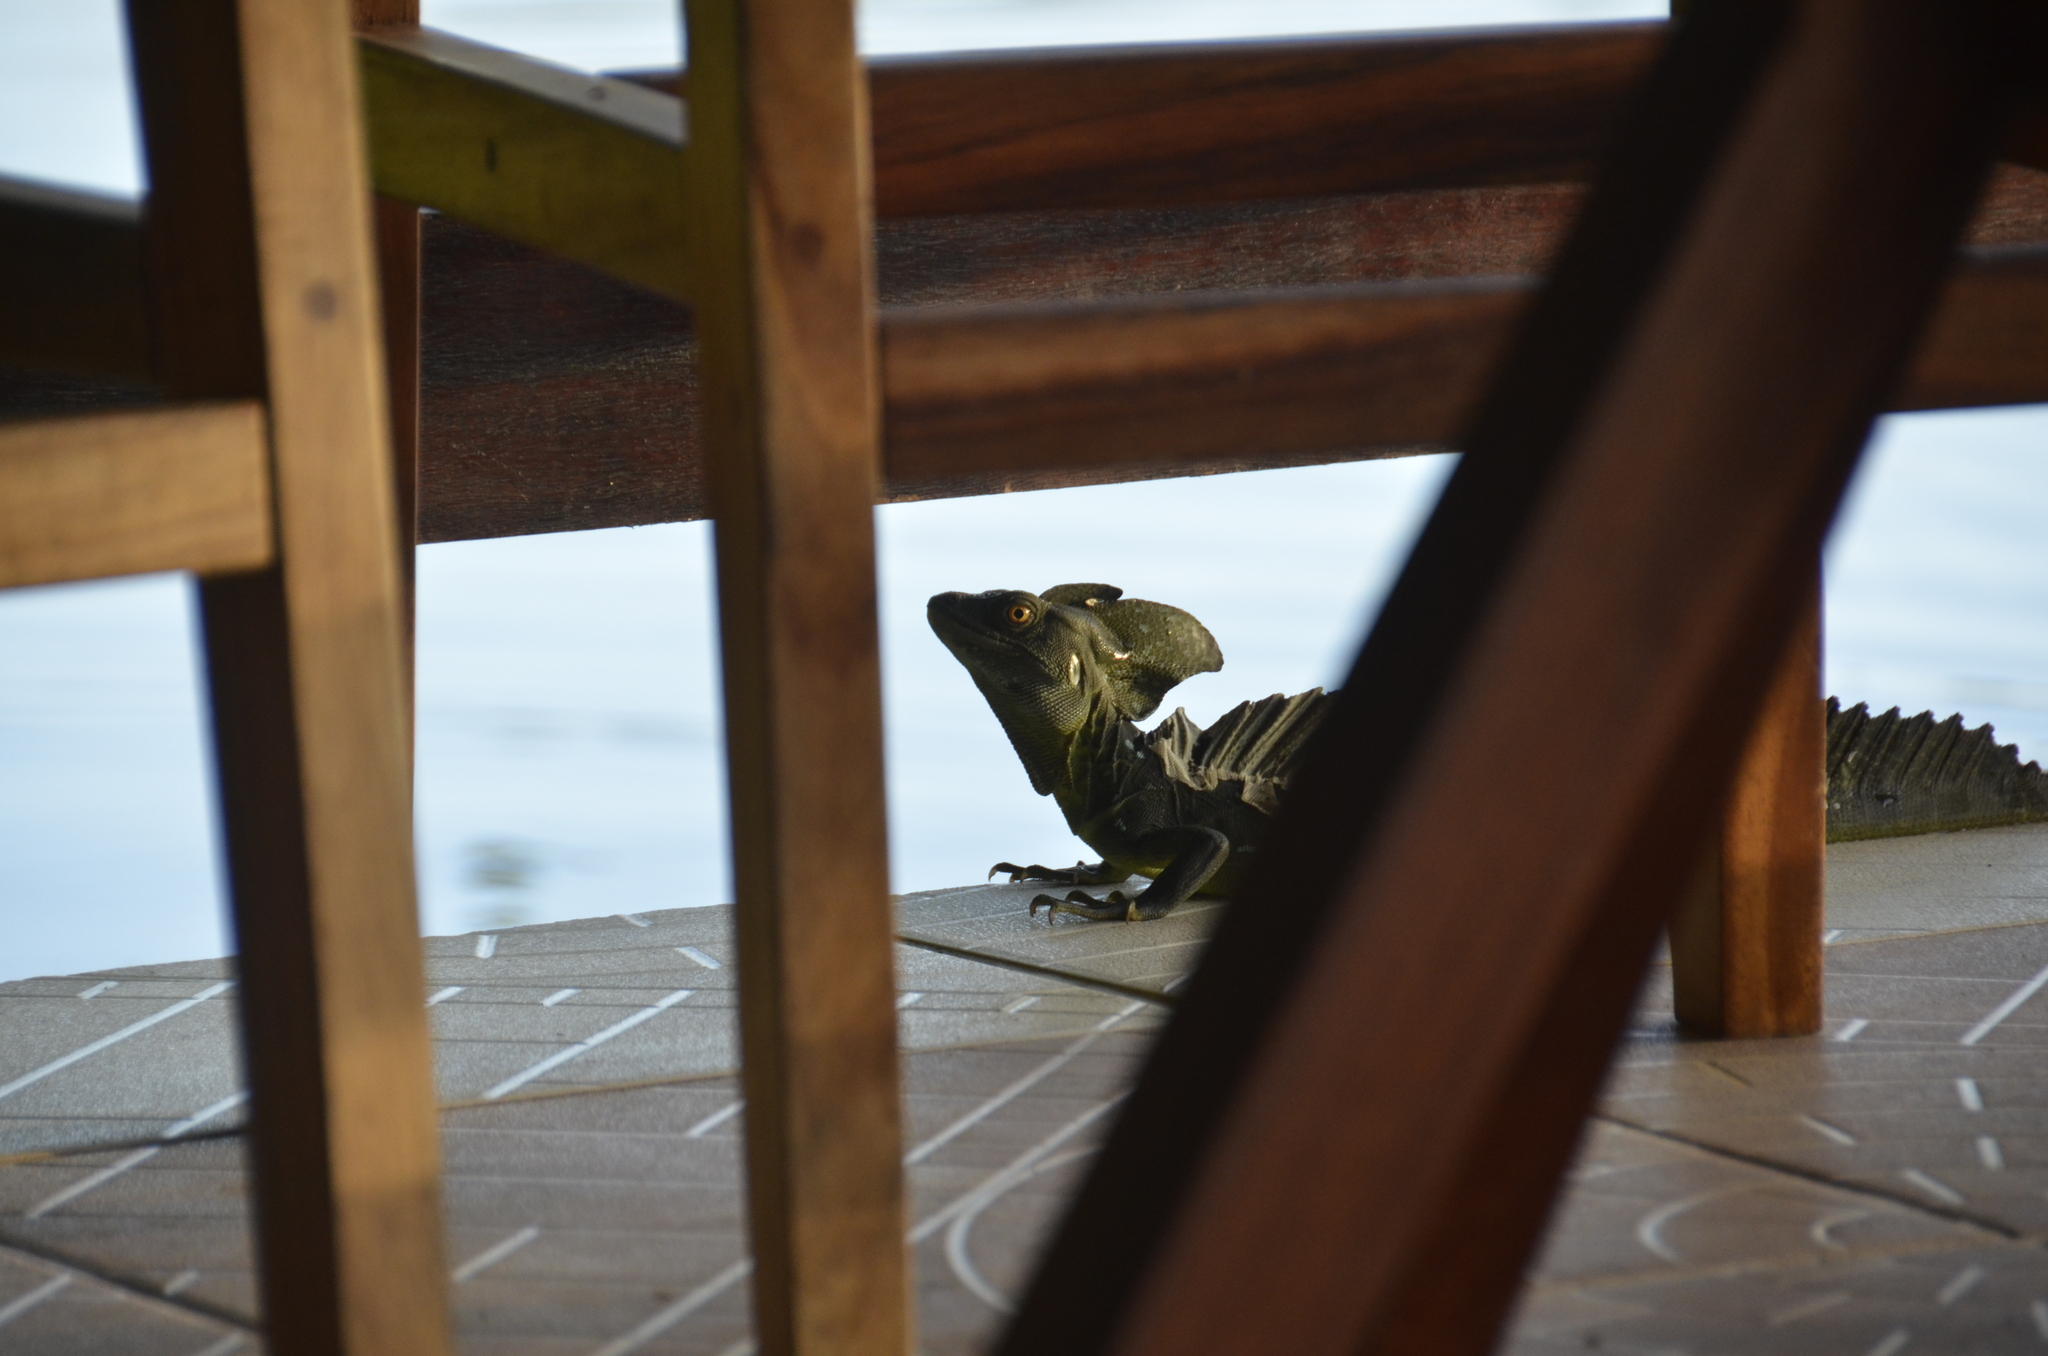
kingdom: Animalia
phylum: Chordata
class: Squamata
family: Corytophanidae
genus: Basiliscus
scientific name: Basiliscus plumifrons
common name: Green basilisk
